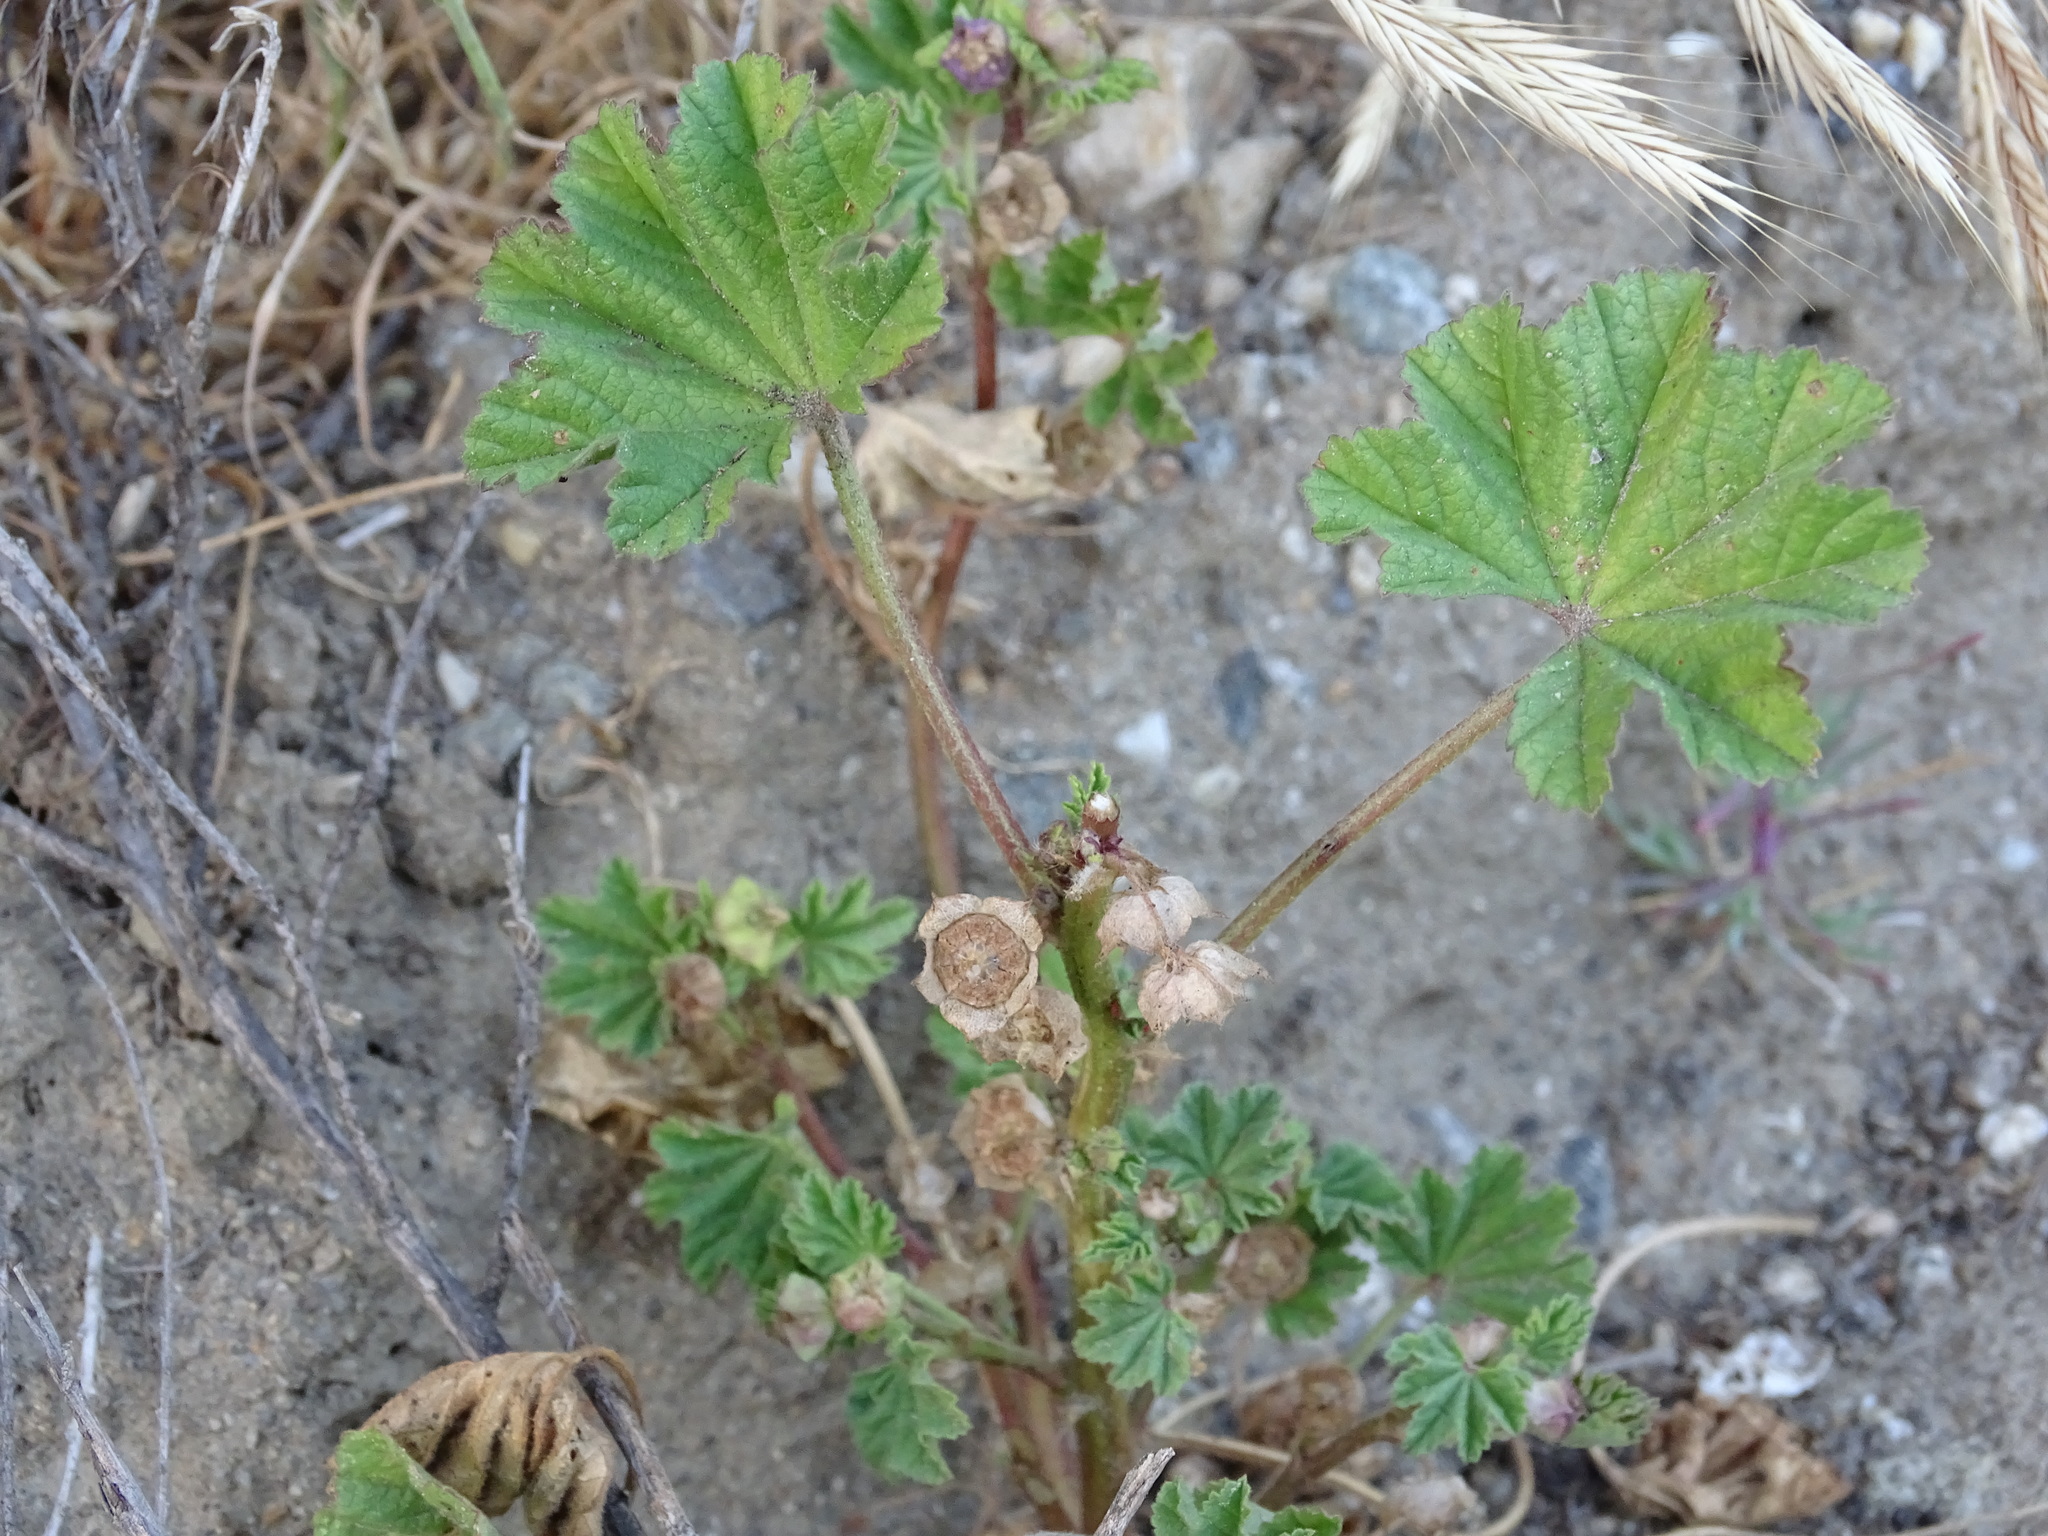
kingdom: Plantae
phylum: Tracheophyta
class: Magnoliopsida
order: Malvales
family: Malvaceae
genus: Malva
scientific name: Malva parviflora
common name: Least mallow
